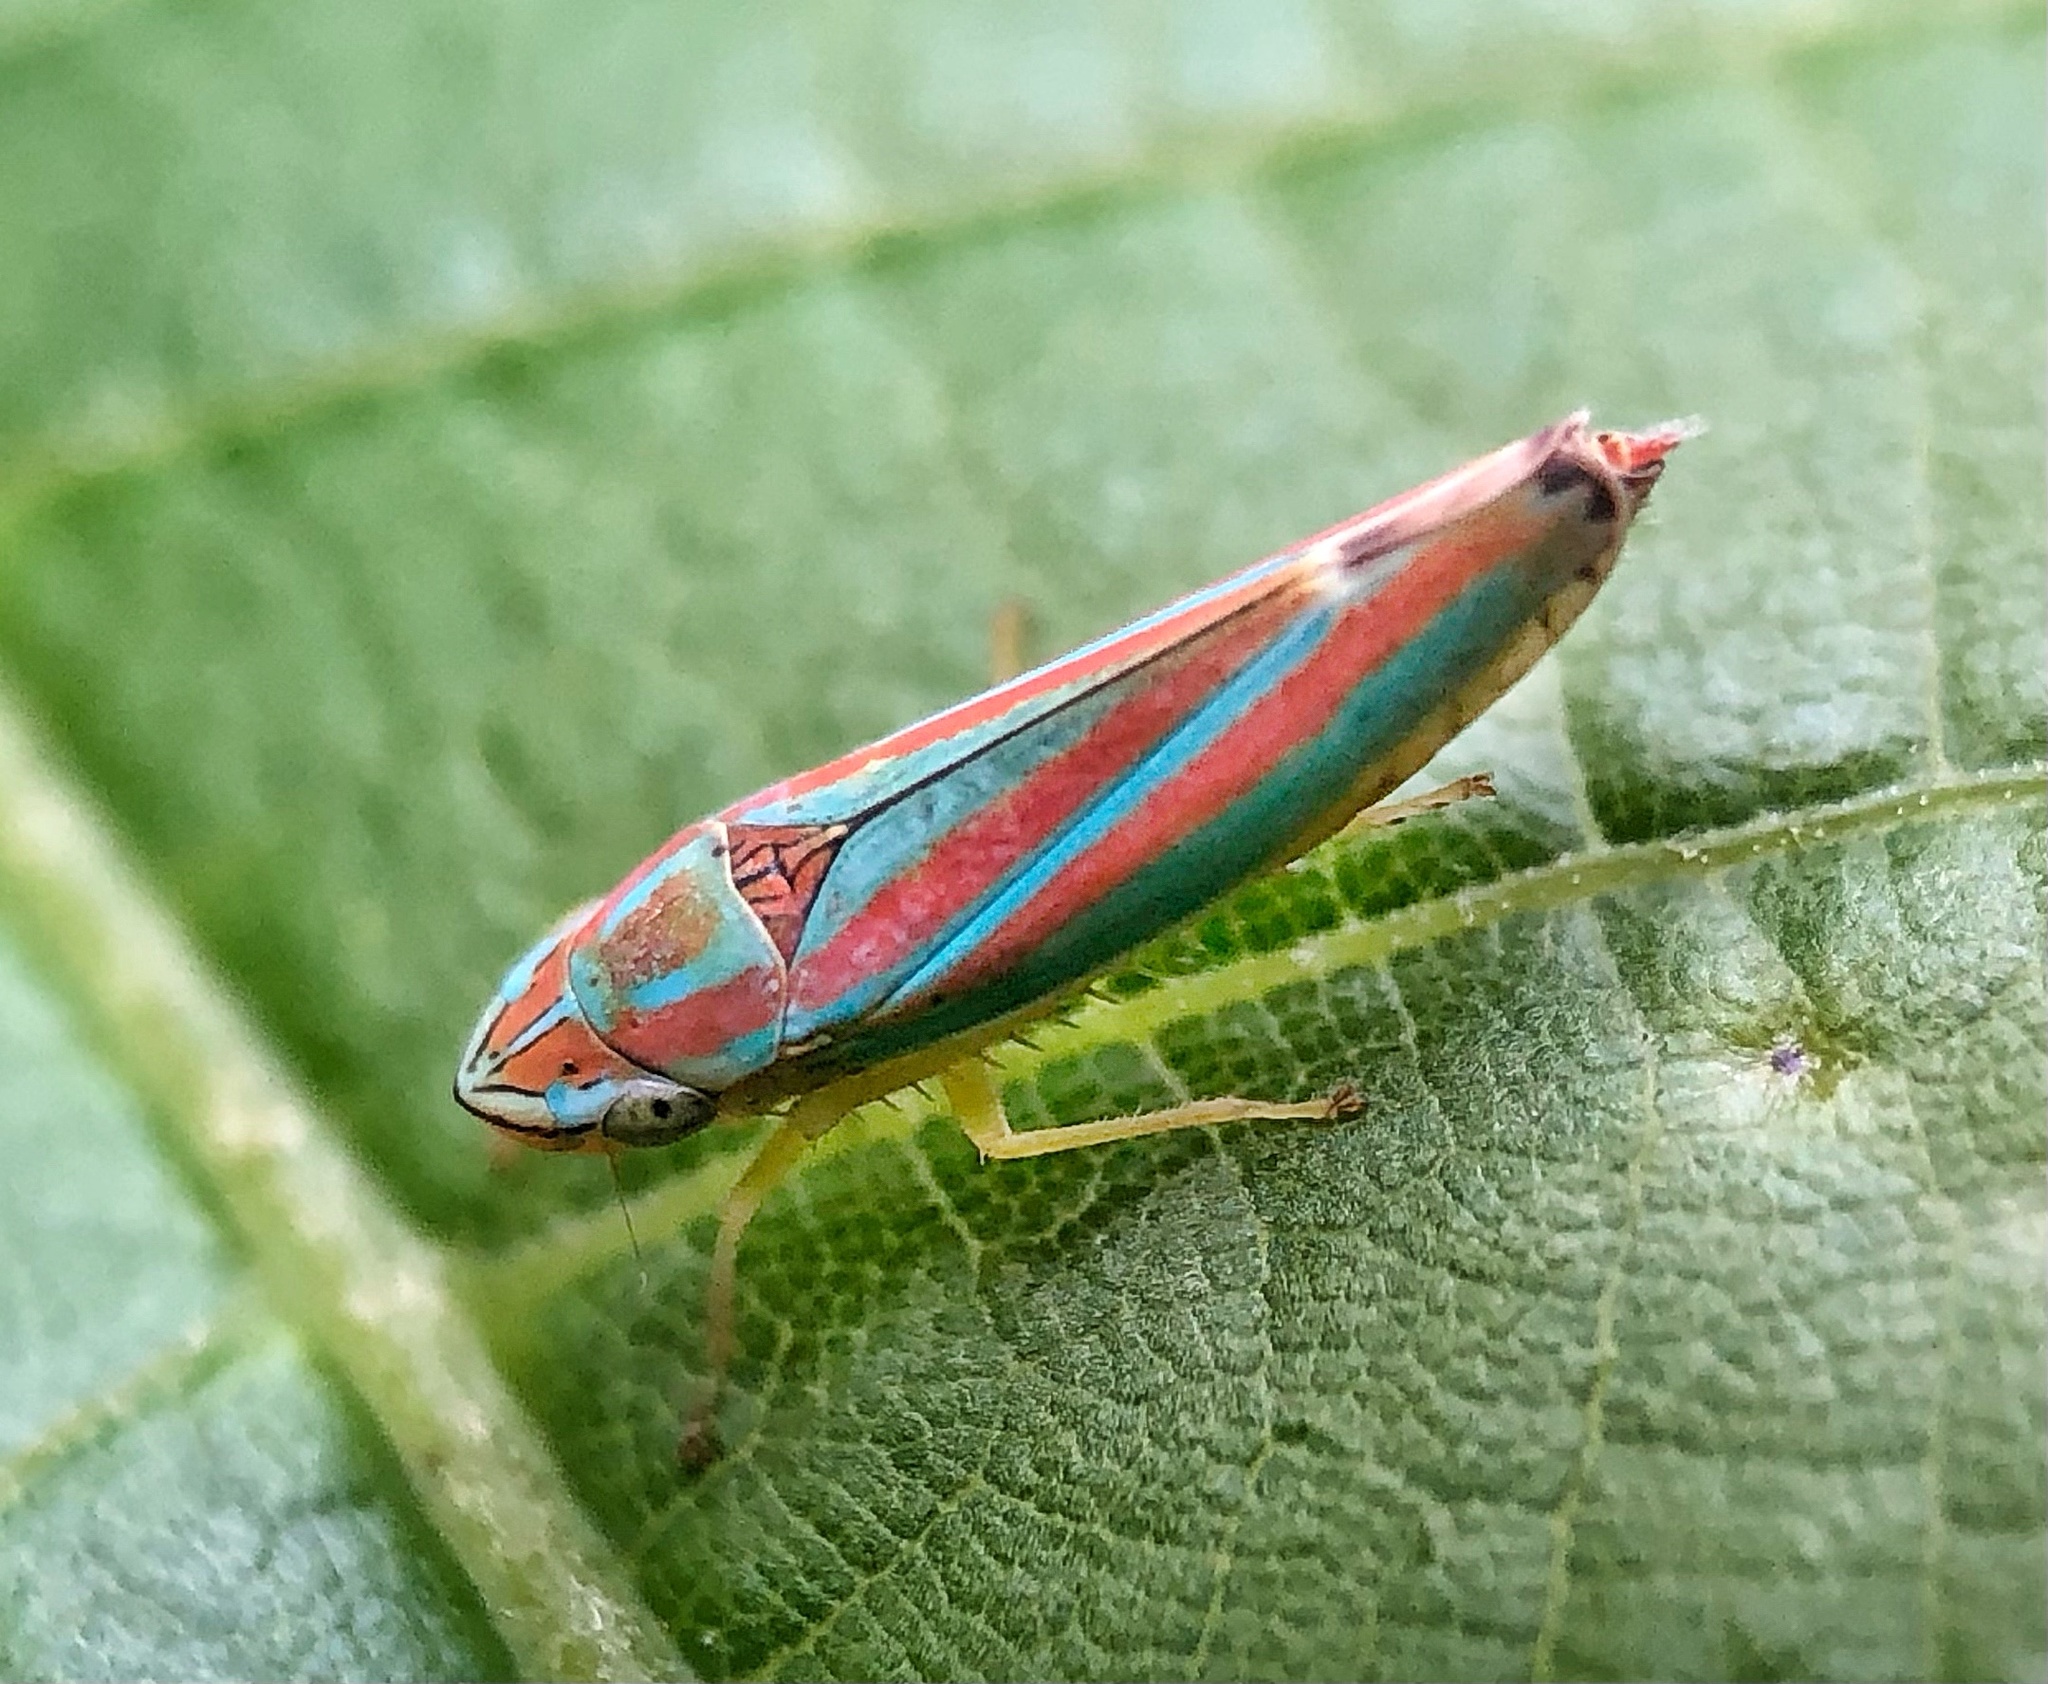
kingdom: Animalia
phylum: Arthropoda
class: Insecta
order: Hemiptera
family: Cicadellidae
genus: Graphocephala
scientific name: Graphocephala versuta
